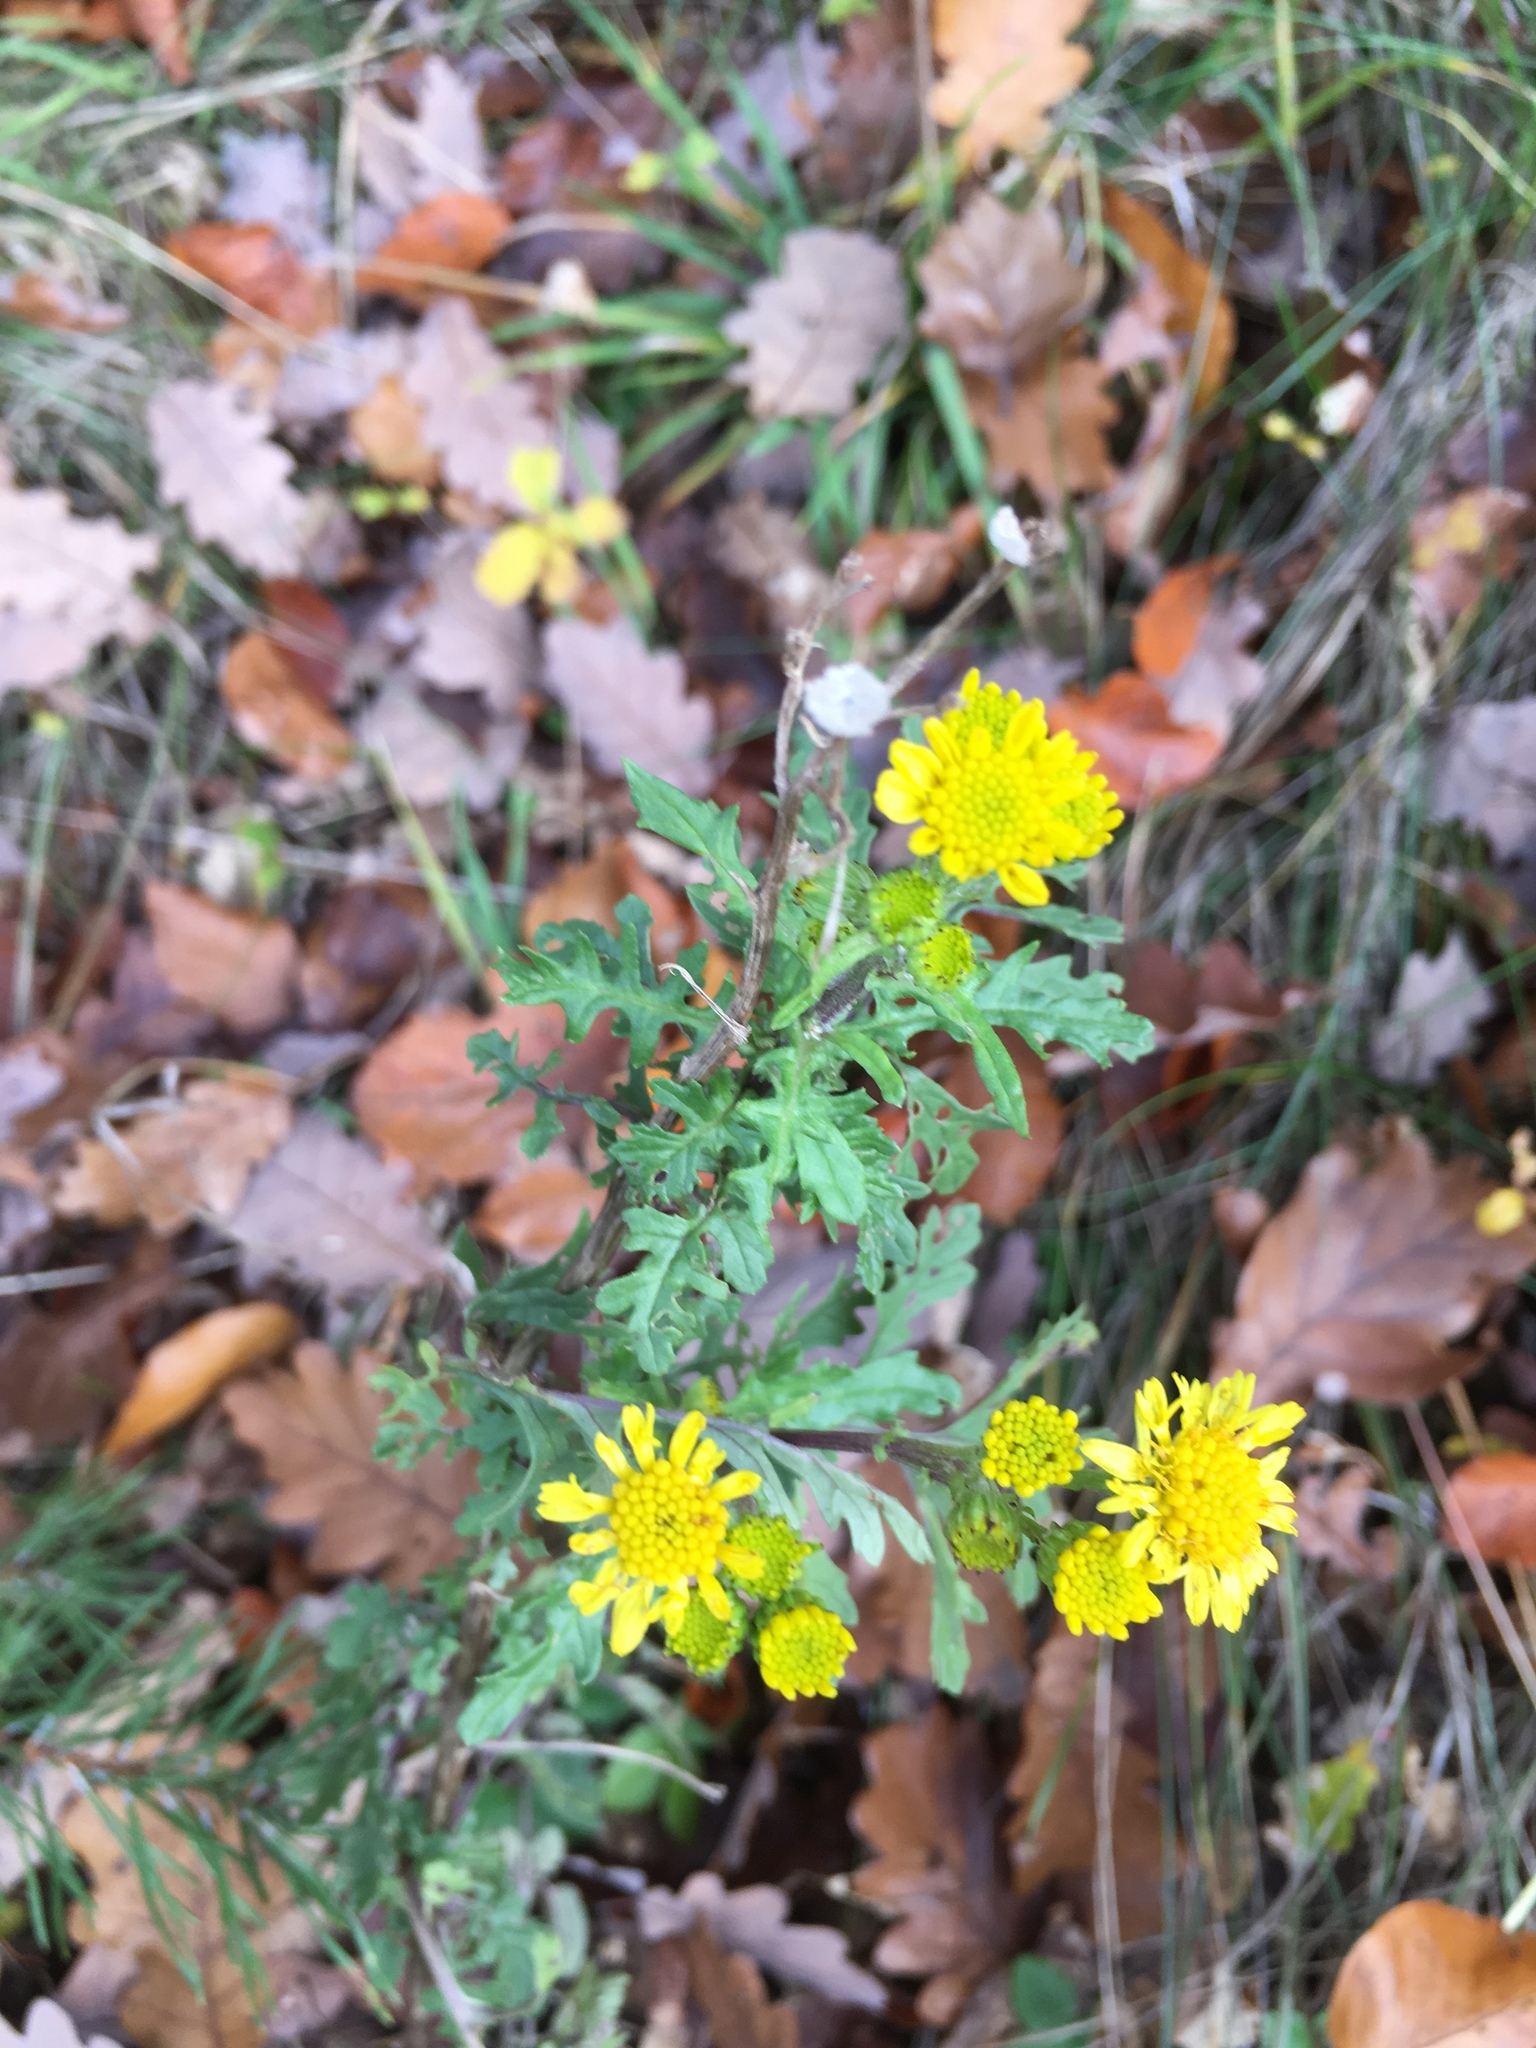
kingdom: Plantae
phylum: Tracheophyta
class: Magnoliopsida
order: Asterales
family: Asteraceae
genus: Jacobaea
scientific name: Jacobaea vulgaris
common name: Stinking willie
